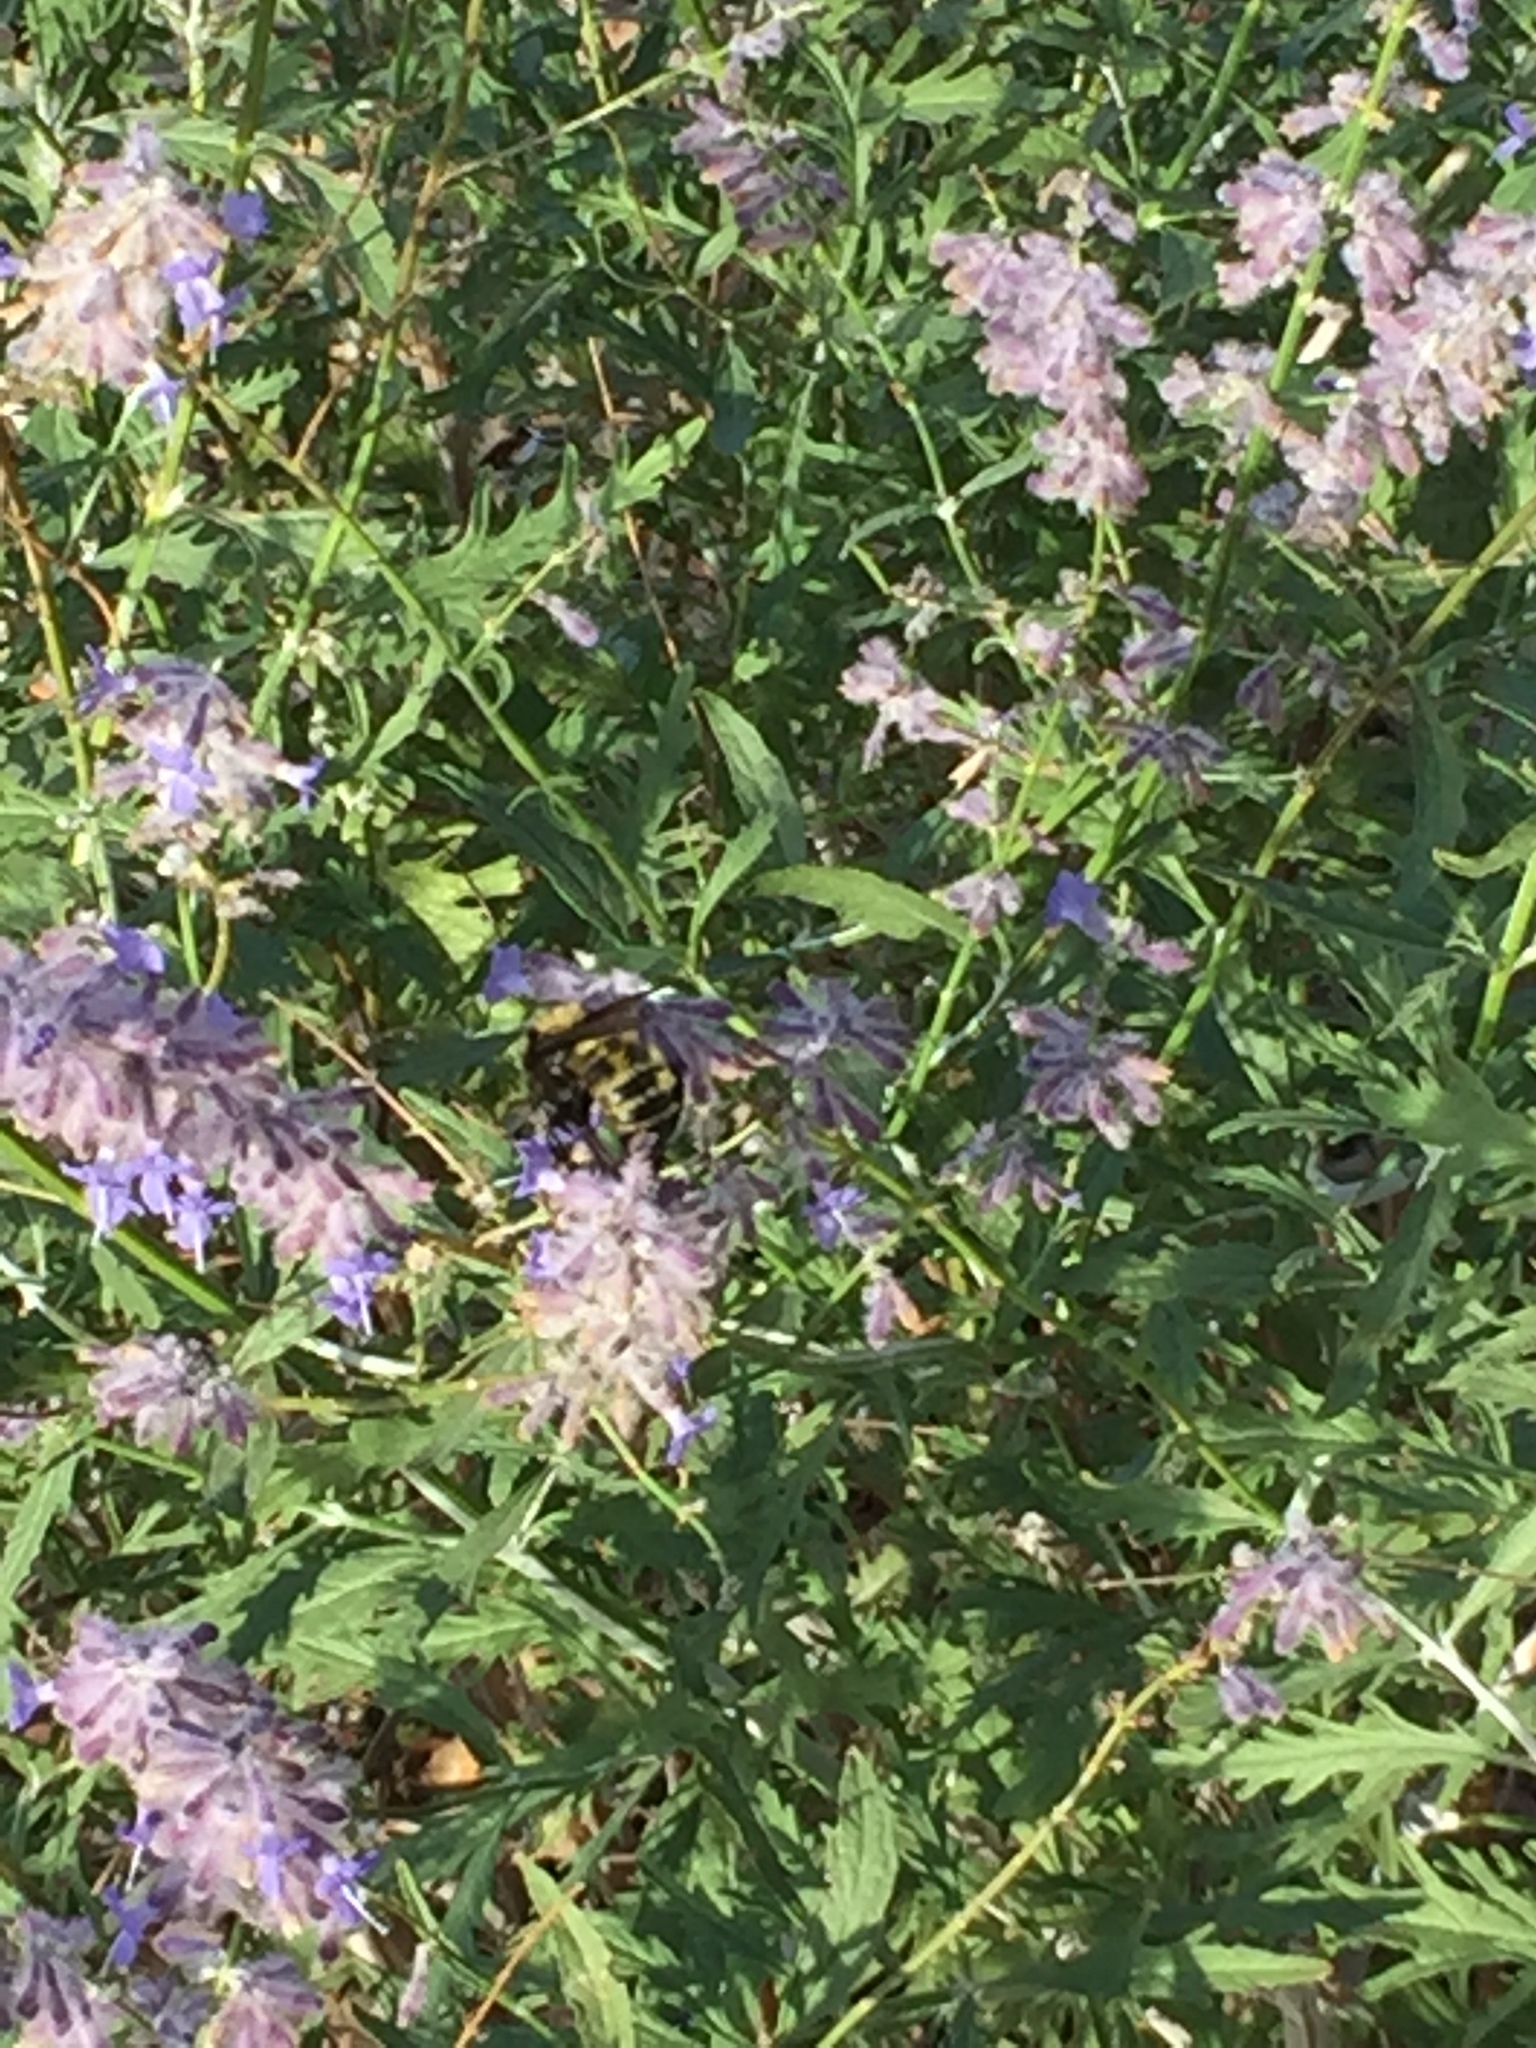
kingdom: Animalia
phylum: Arthropoda
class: Insecta
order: Hymenoptera
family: Apidae
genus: Bombus
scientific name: Bombus sonorus
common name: Sonoran bumble bee
